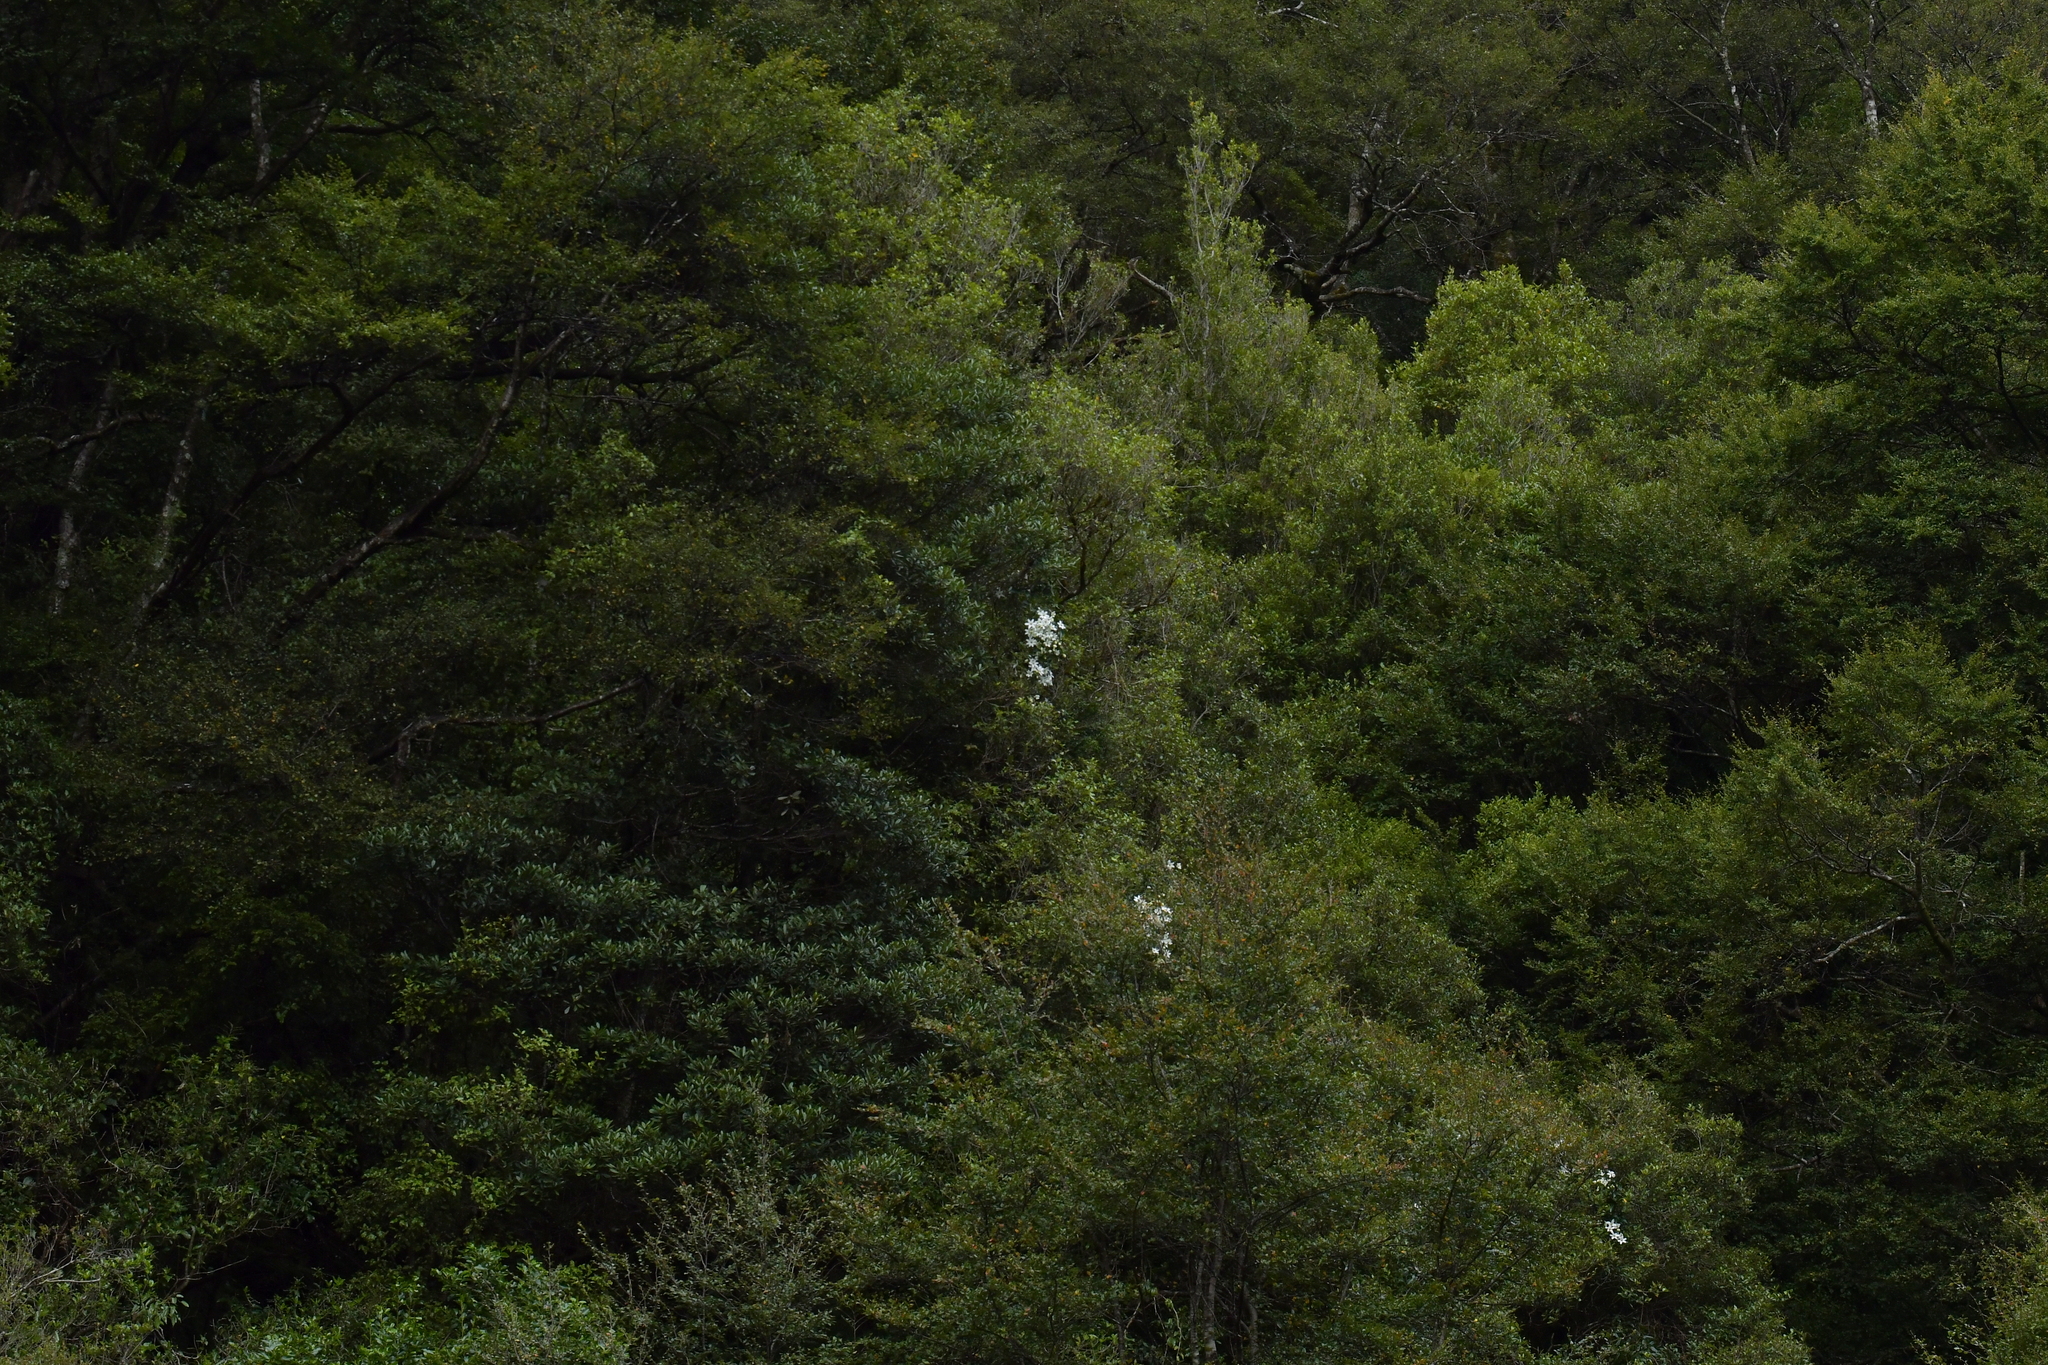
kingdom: Plantae
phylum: Tracheophyta
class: Magnoliopsida
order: Ranunculales
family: Ranunculaceae
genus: Clematis
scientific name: Clematis paniculata
